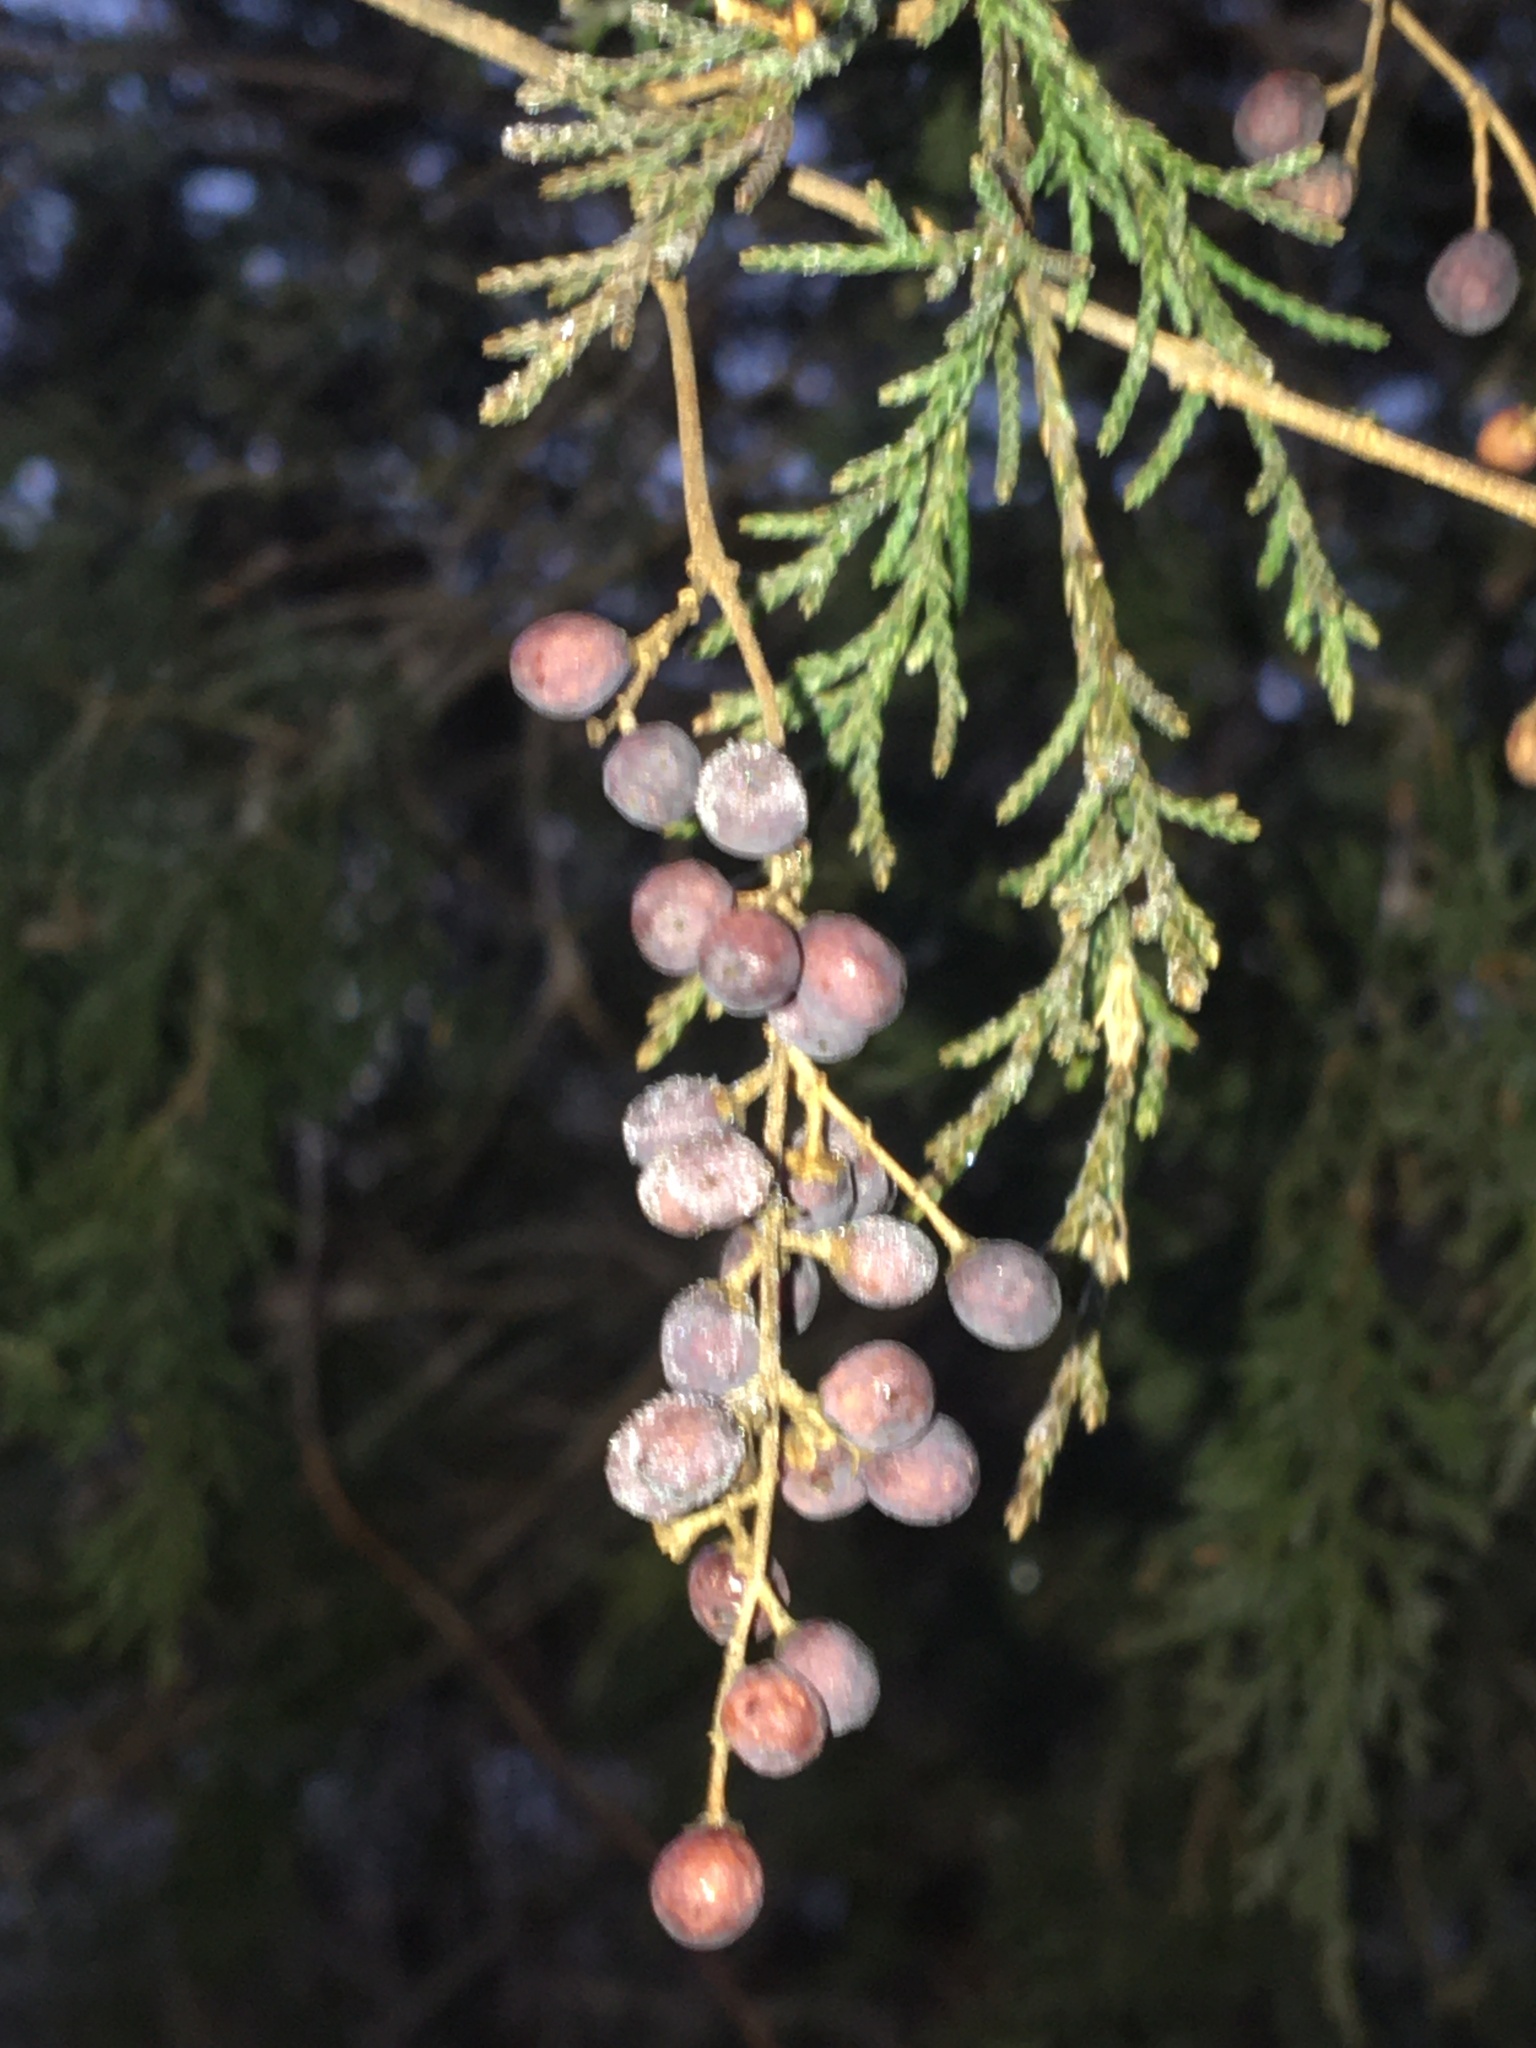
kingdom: Plantae
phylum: Tracheophyta
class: Pinopsida
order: Pinales
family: Cupressaceae
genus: Juniperus
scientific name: Juniperus virginiana
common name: Red juniper
